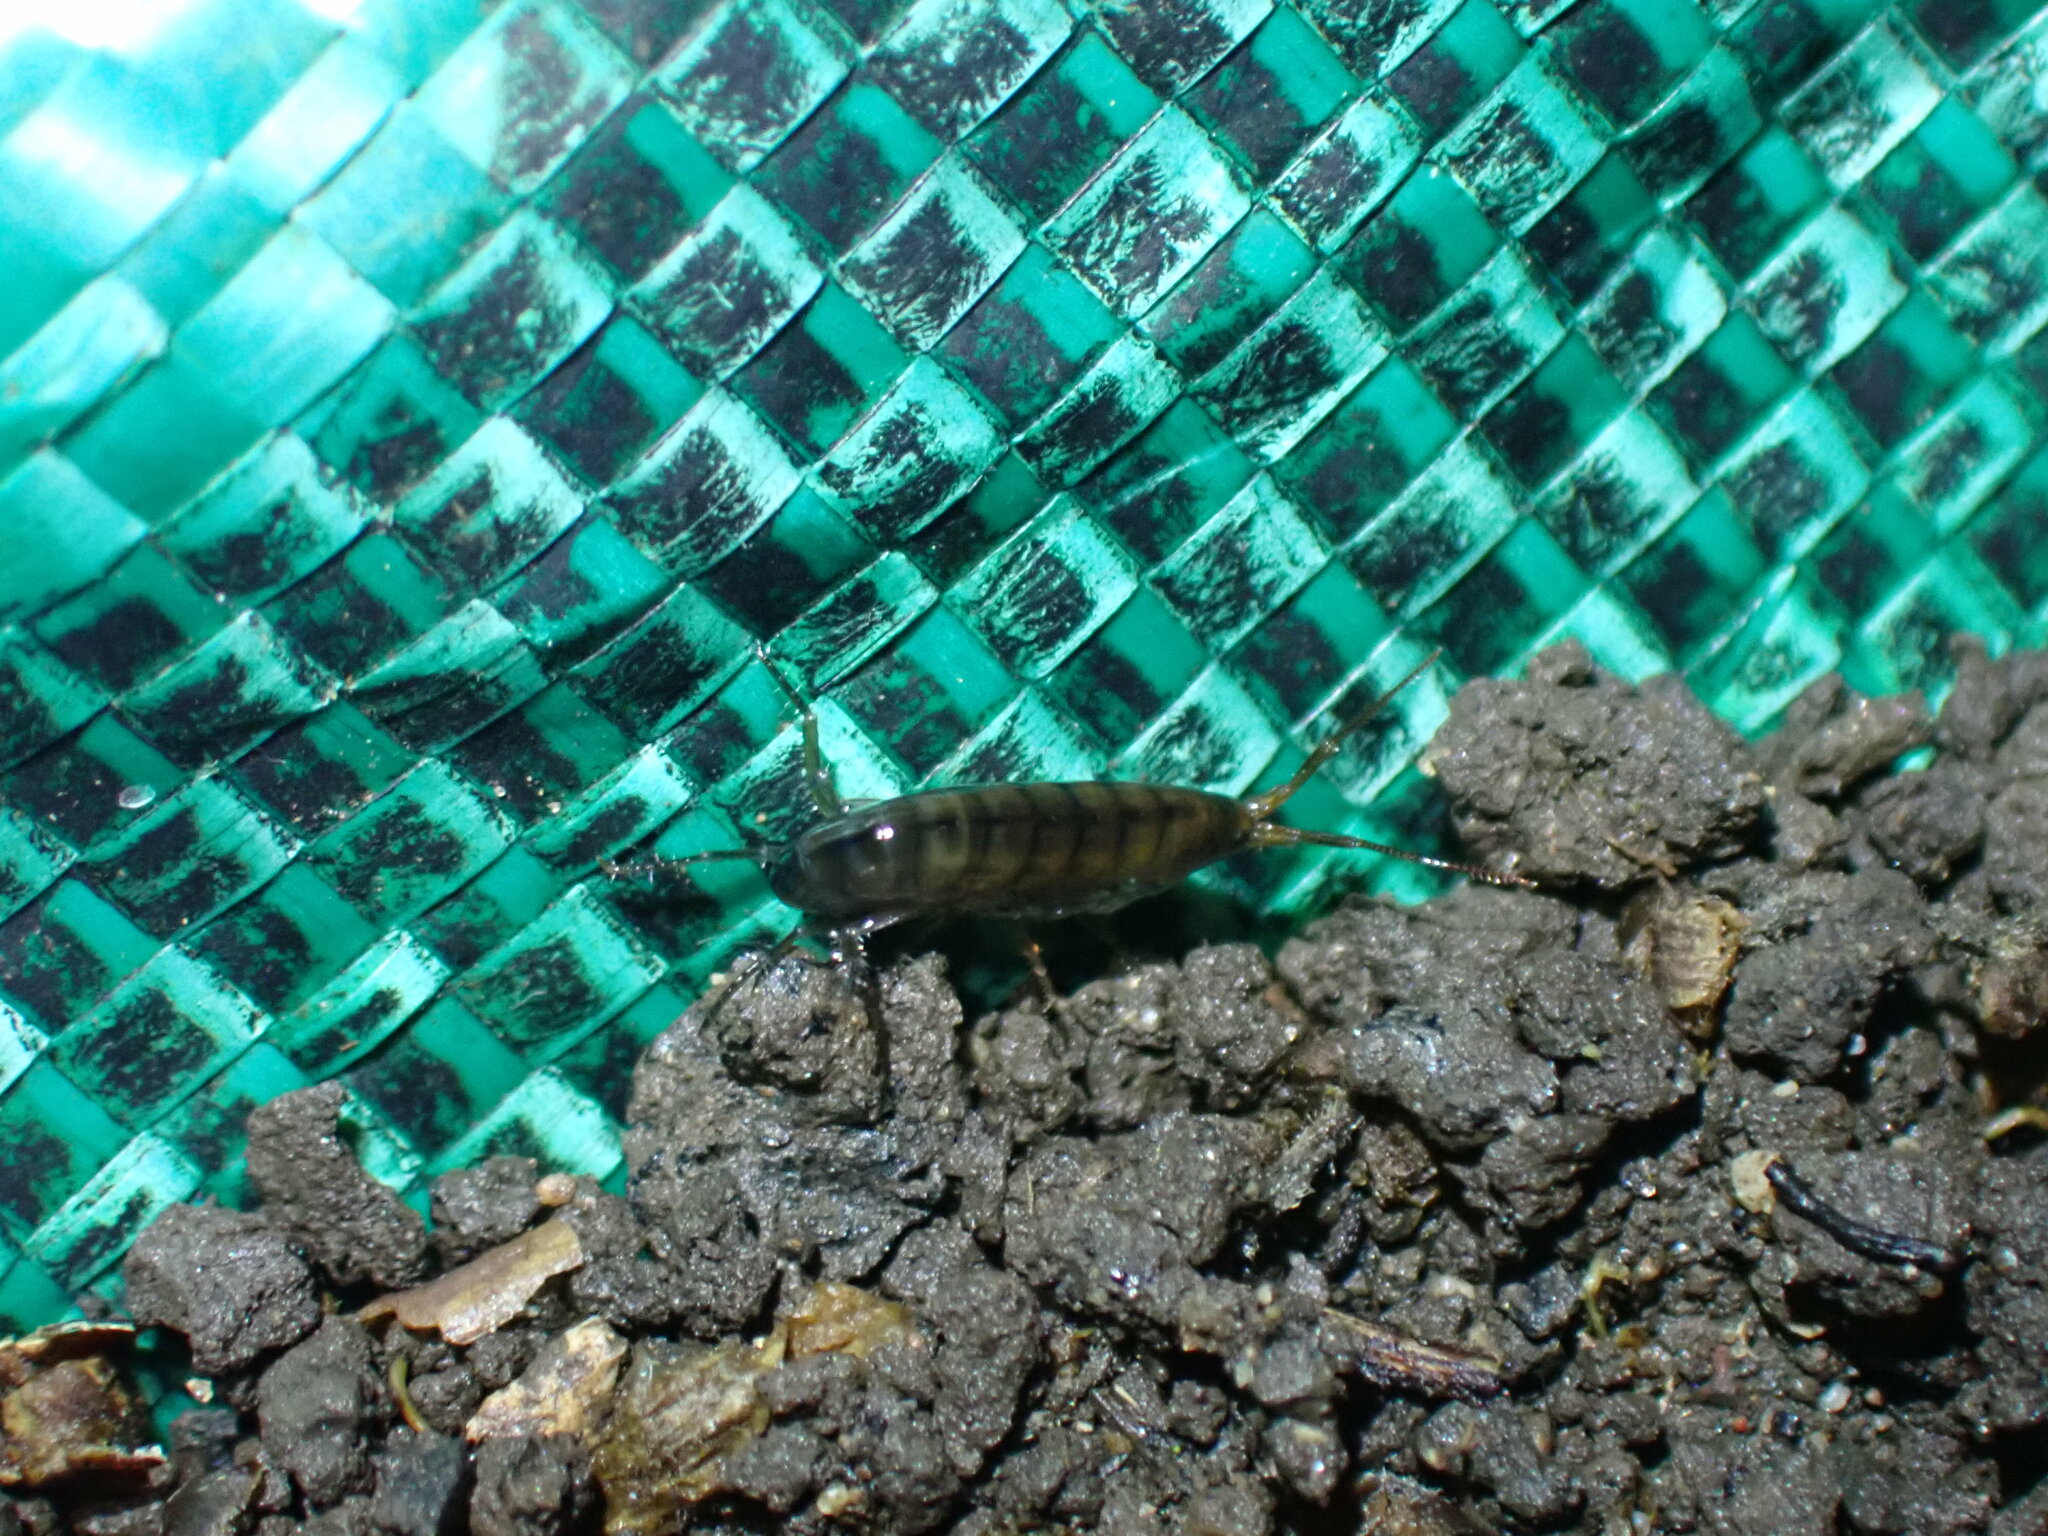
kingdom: Animalia
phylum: Arthropoda
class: Malacostraca
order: Amphipoda
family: Arcitalitridae
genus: Arcitalitrus
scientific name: Arcitalitrus dorrieni
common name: Landhopper
